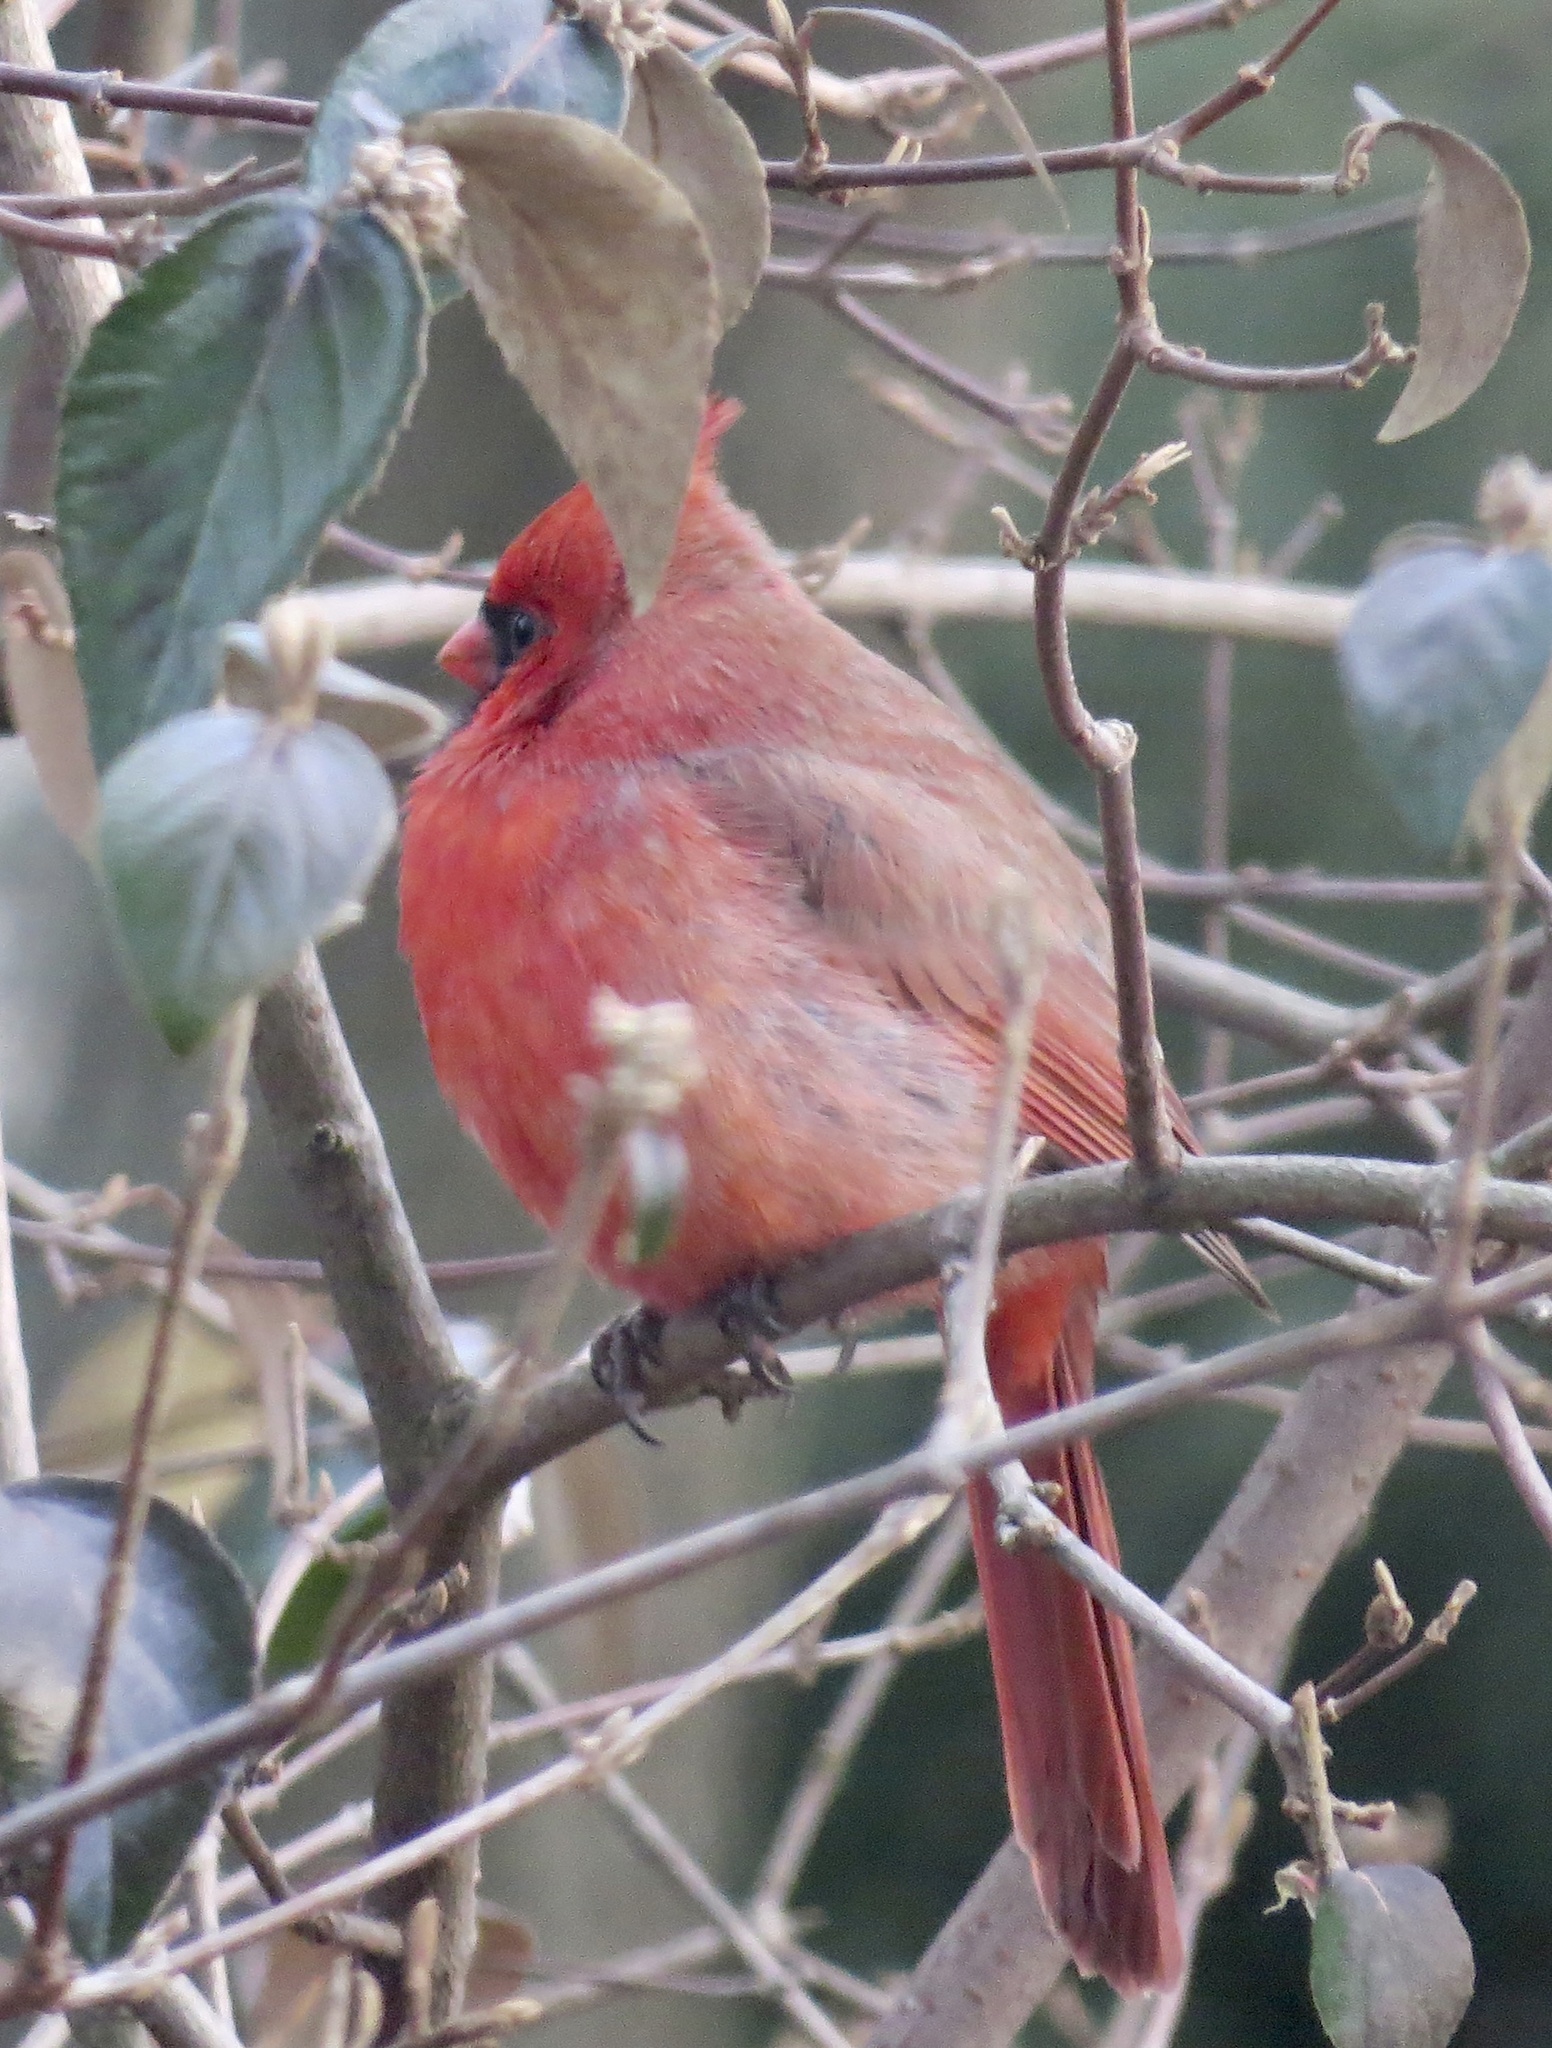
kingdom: Animalia
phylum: Chordata
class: Aves
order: Passeriformes
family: Cardinalidae
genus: Cardinalis
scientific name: Cardinalis cardinalis
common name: Northern cardinal
